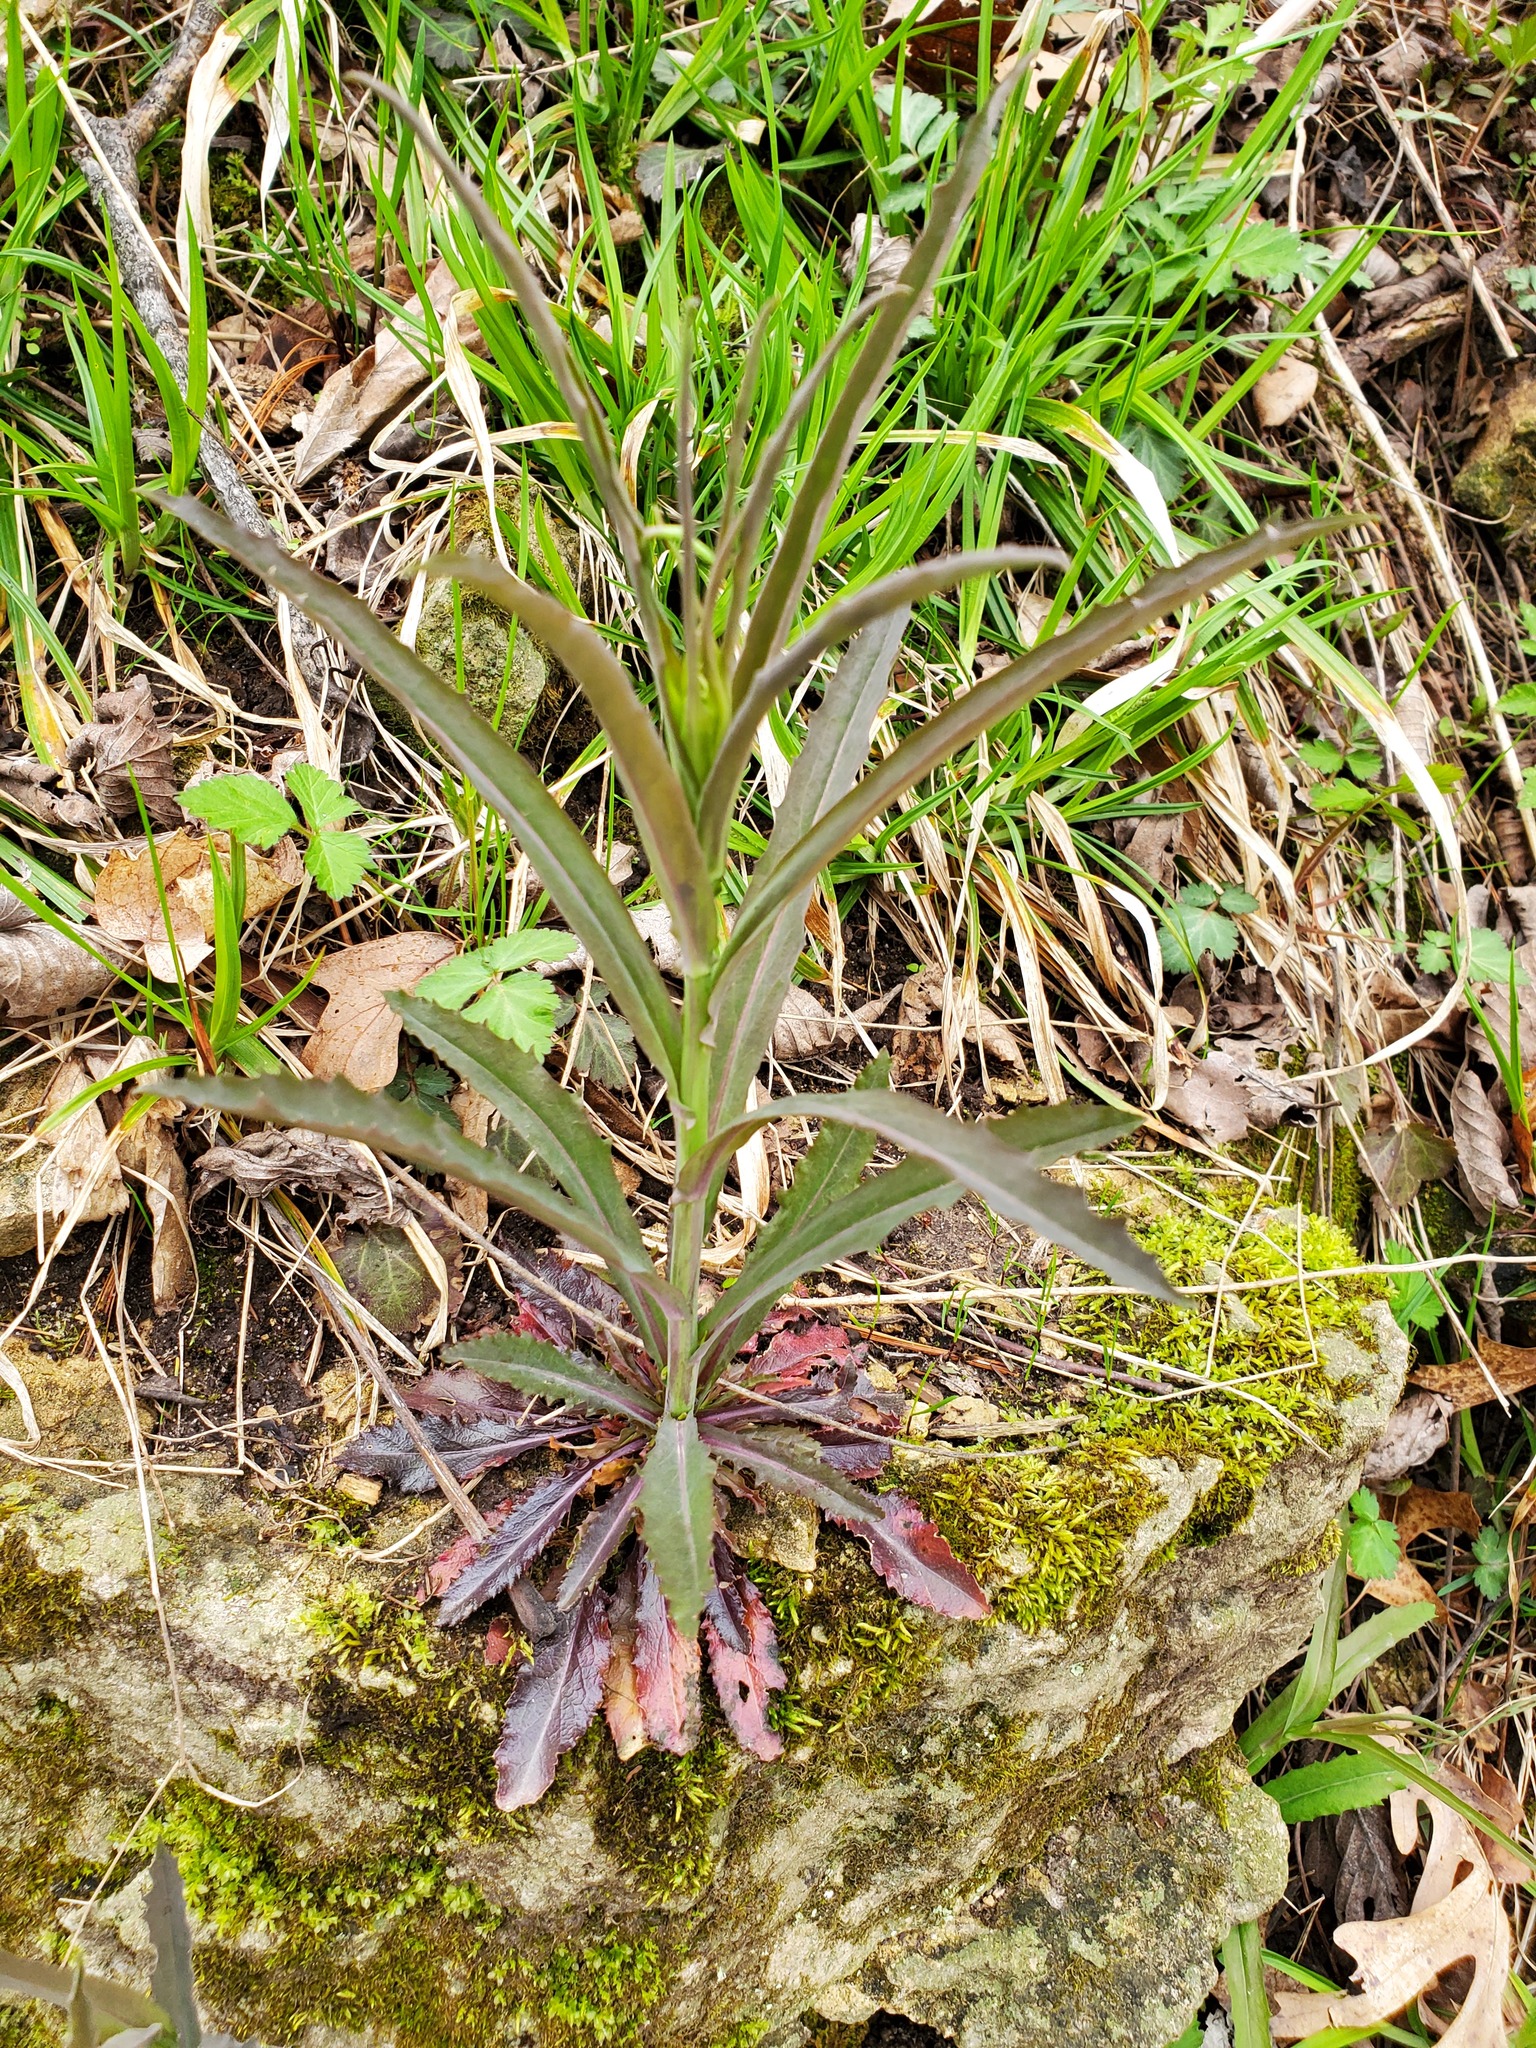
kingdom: Plantae
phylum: Tracheophyta
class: Magnoliopsida
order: Brassicales
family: Brassicaceae
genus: Borodinia
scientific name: Borodinia laevigata
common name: Smooth rockcress
